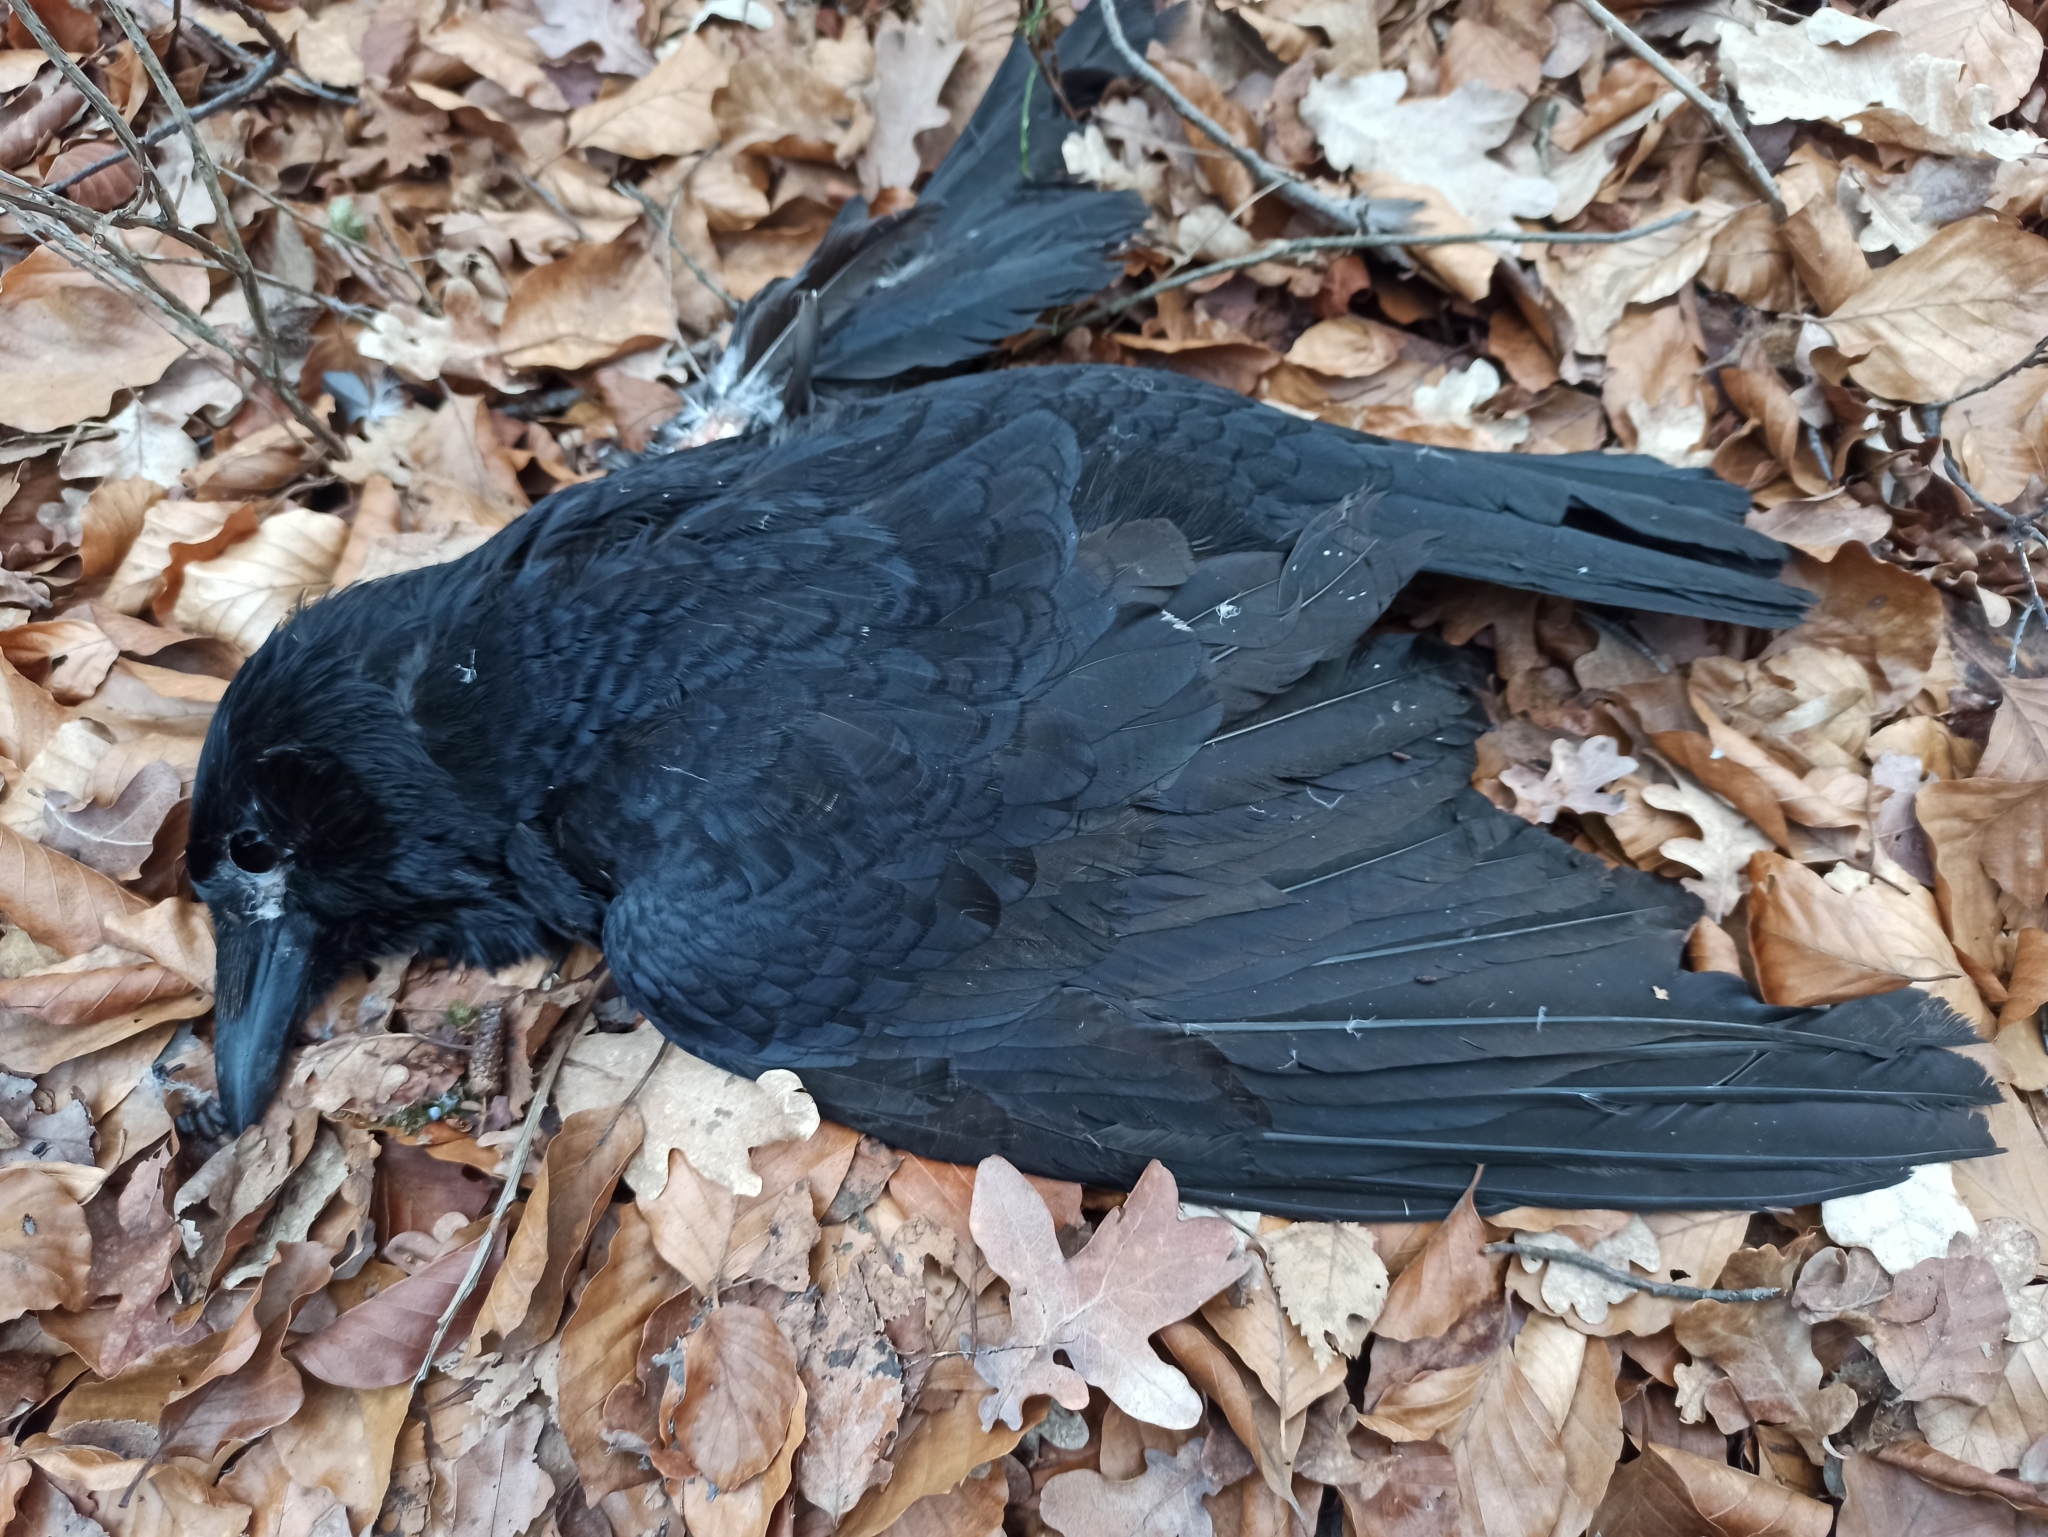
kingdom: Animalia
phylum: Chordata
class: Aves
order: Passeriformes
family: Corvidae
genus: Corvus
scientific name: Corvus corone
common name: Carrion crow
